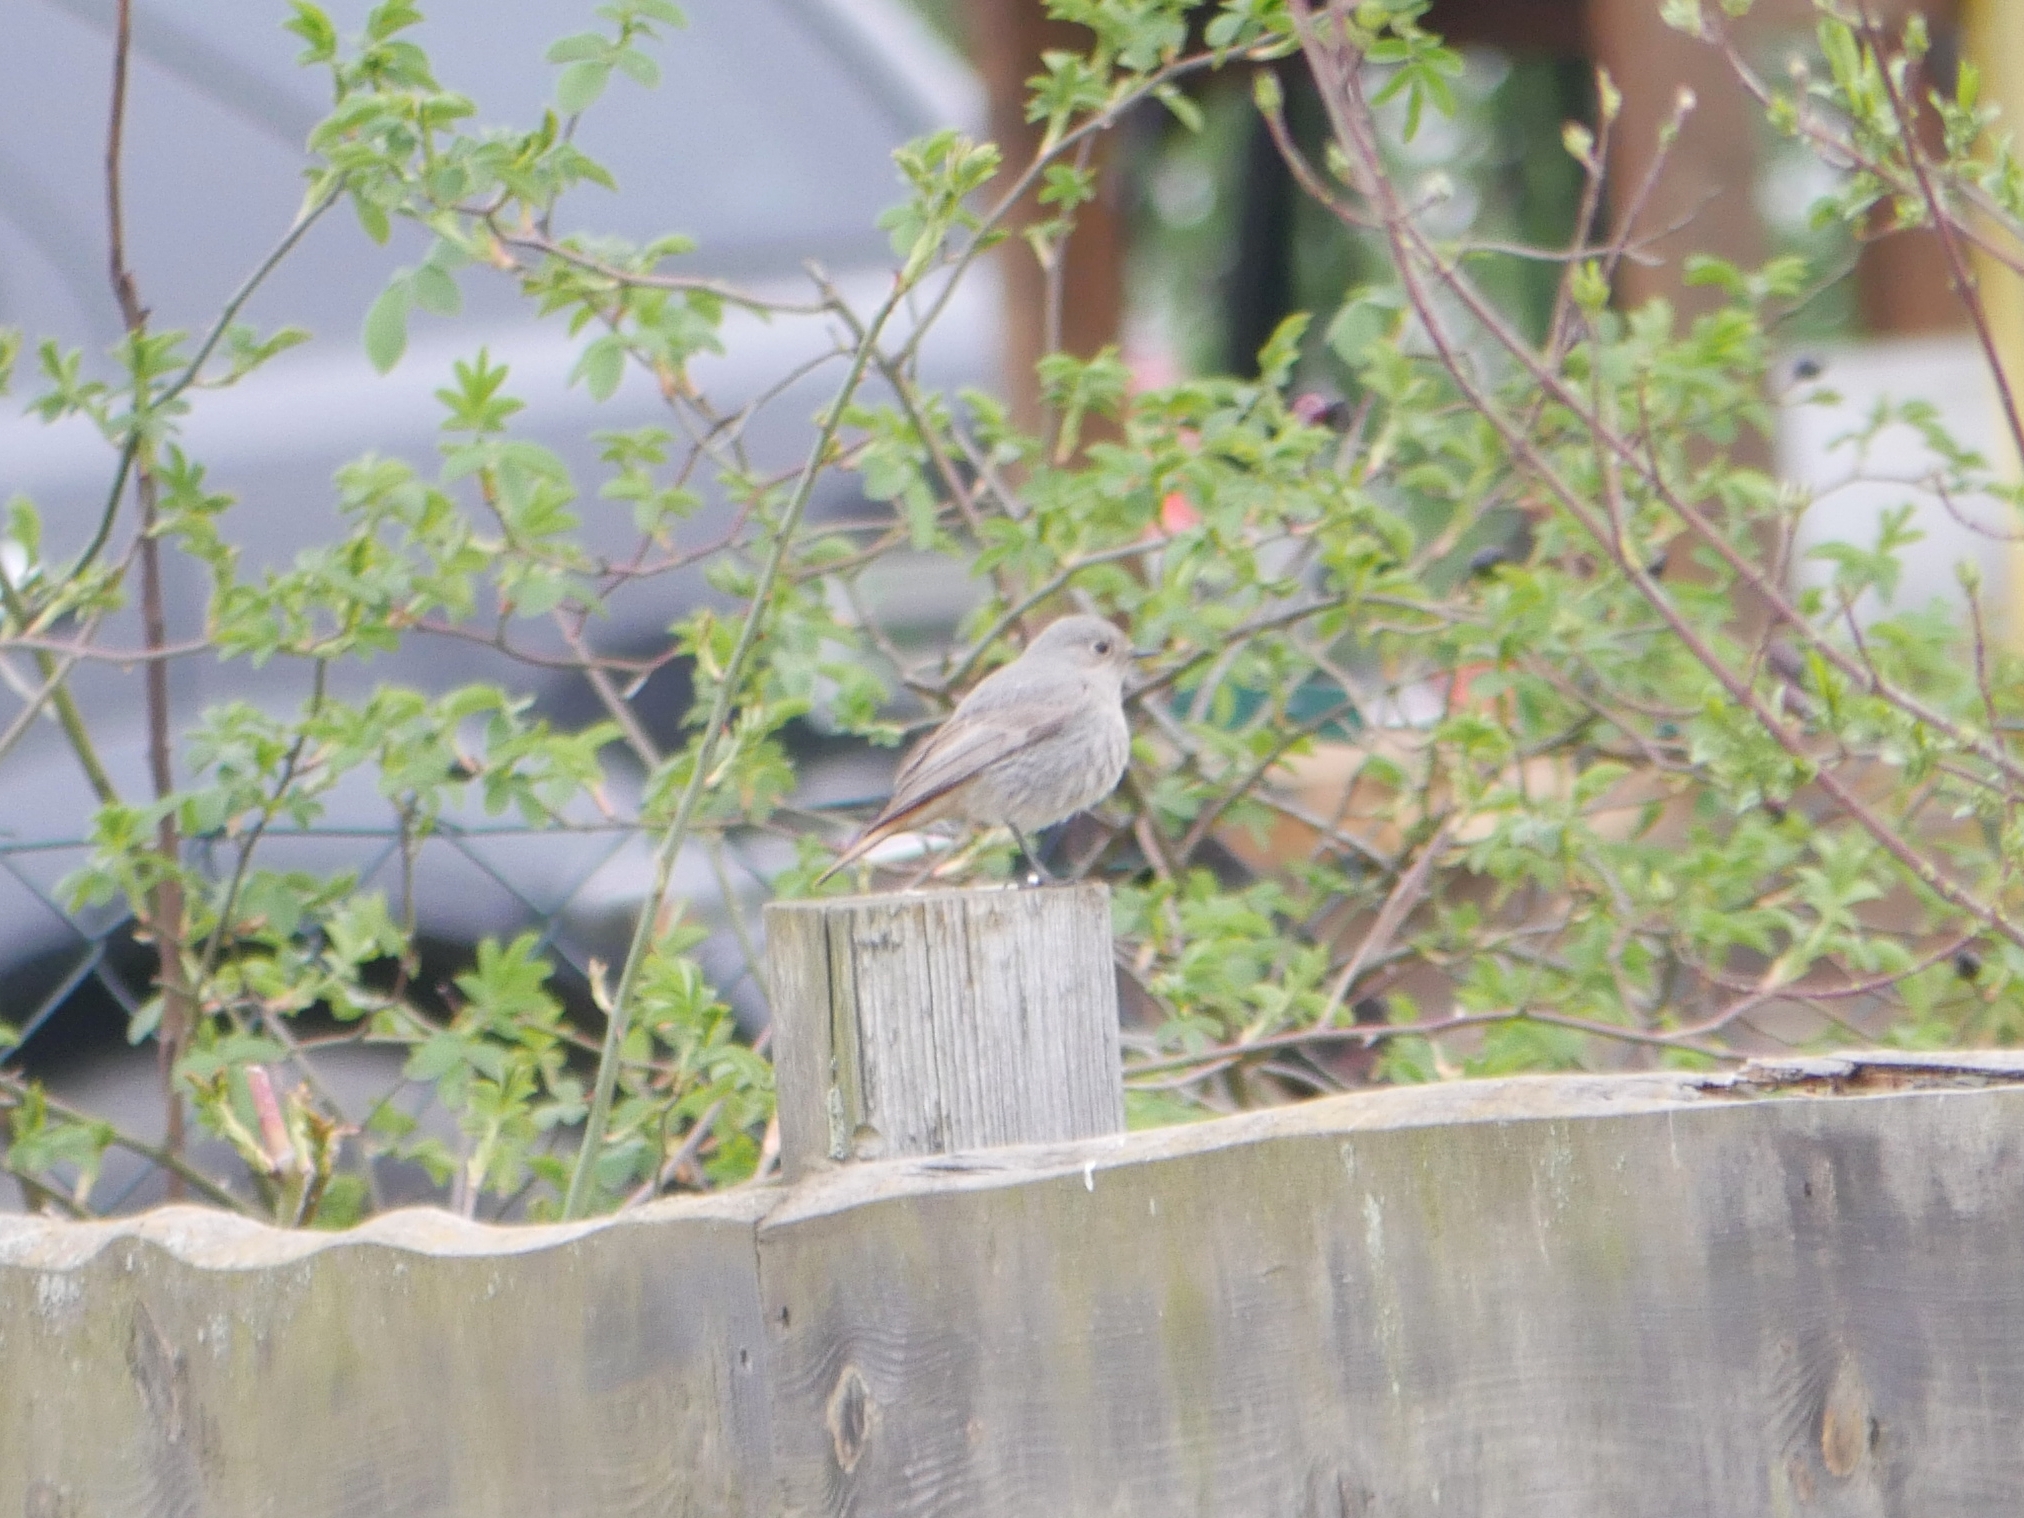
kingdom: Animalia
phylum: Chordata
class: Aves
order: Passeriformes
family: Muscicapidae
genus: Phoenicurus
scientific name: Phoenicurus ochruros
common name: Black redstart
